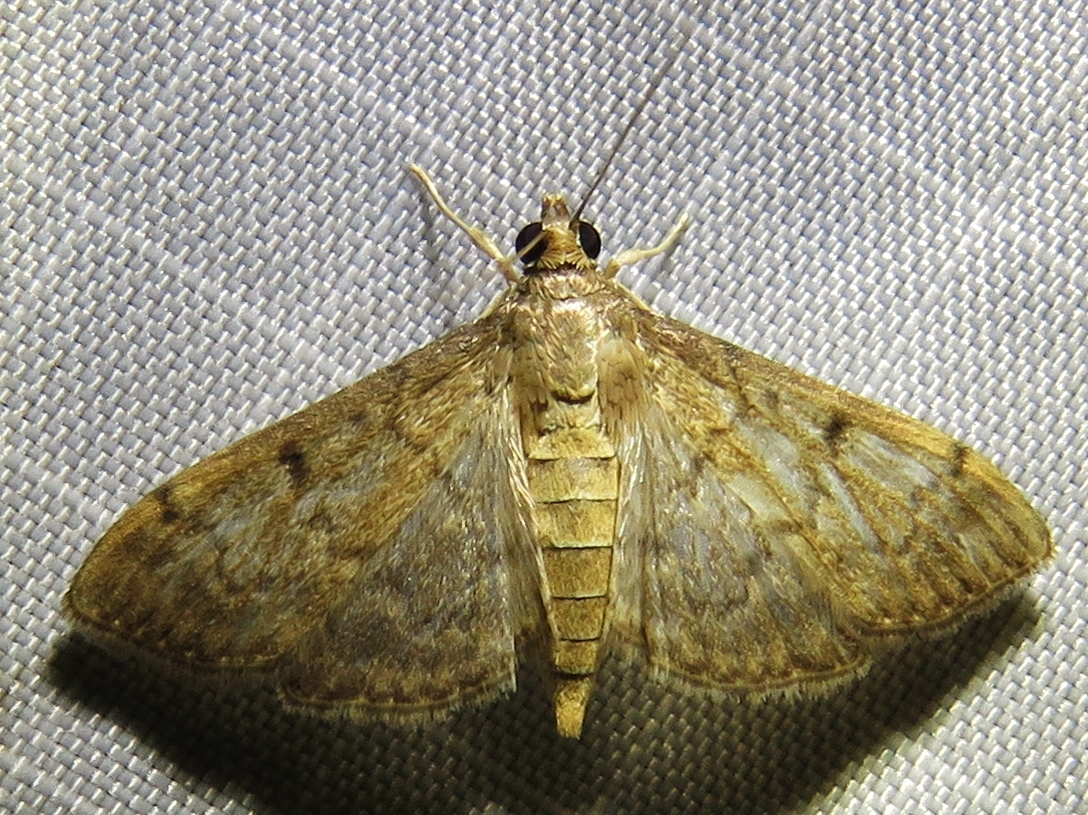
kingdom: Animalia
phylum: Arthropoda
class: Insecta
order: Lepidoptera
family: Crambidae
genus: Herpetogramma
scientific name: Herpetogramma phaeopteralis
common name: Dusky herpetogramma moth
